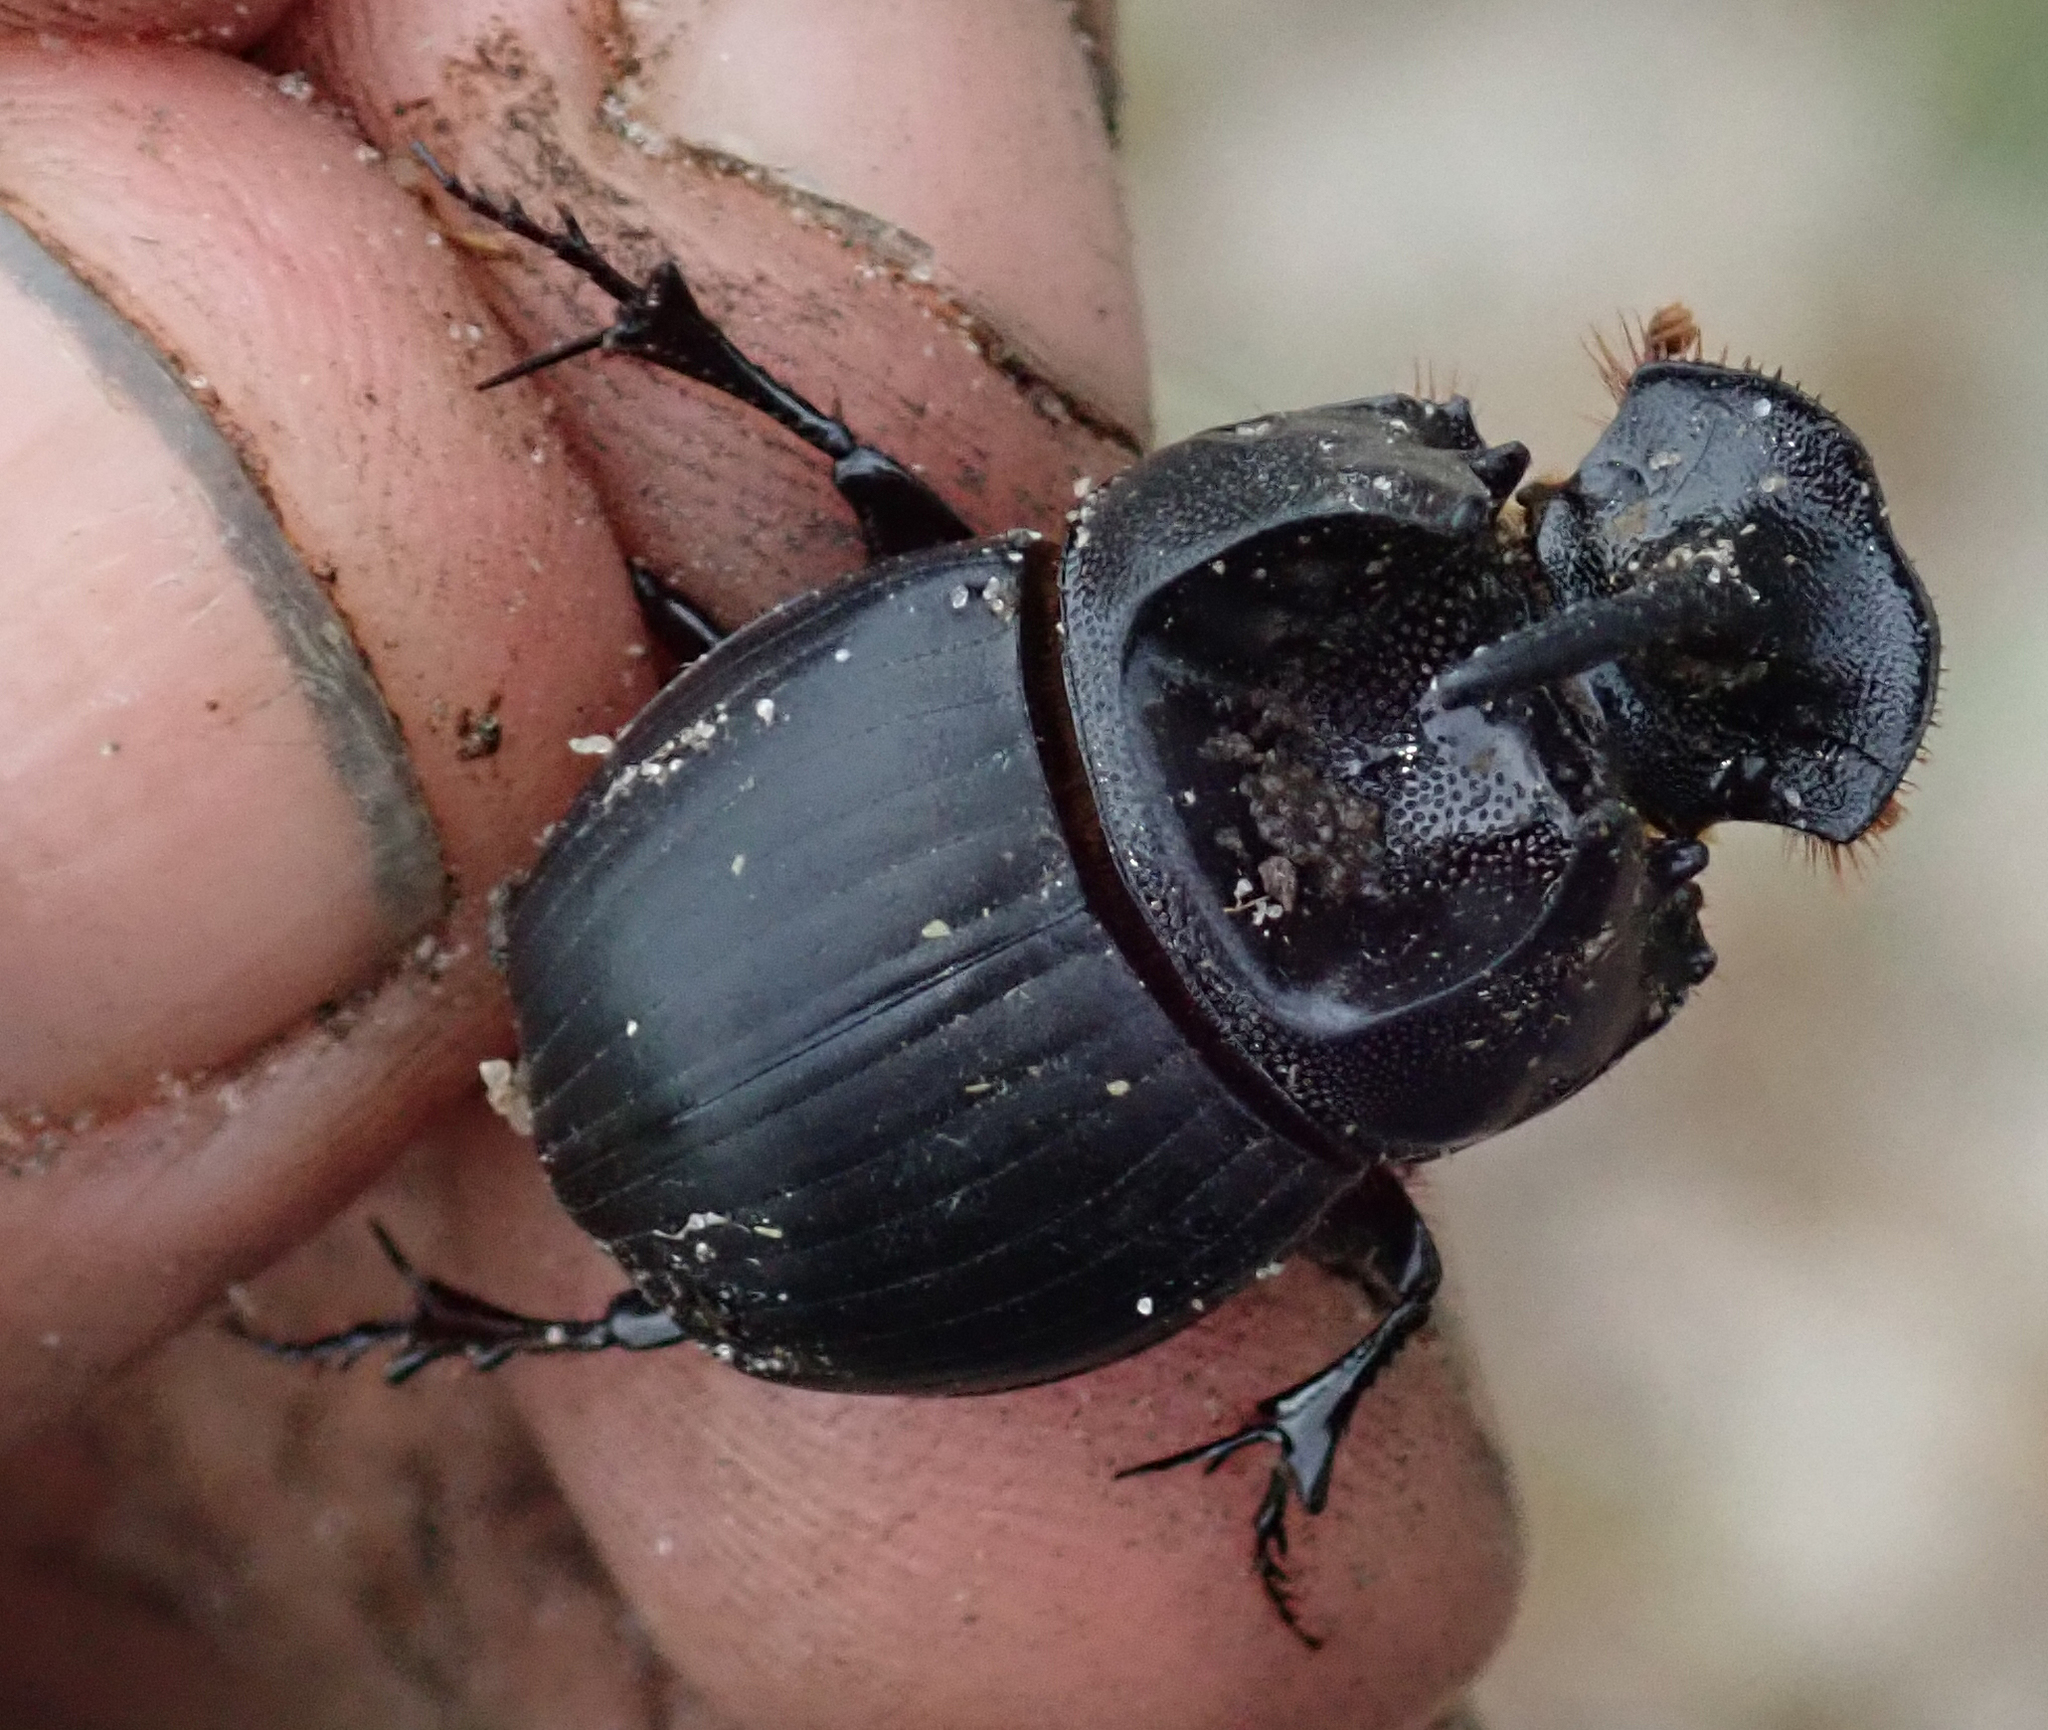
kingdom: Animalia
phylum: Arthropoda
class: Insecta
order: Coleoptera
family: Scarabaeidae
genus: Copris
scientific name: Copris bootes
